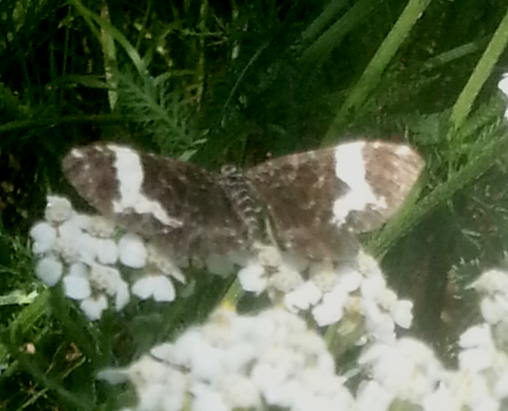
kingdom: Animalia
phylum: Arthropoda
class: Insecta
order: Lepidoptera
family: Geometridae
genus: Rheumaptera
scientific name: Rheumaptera
